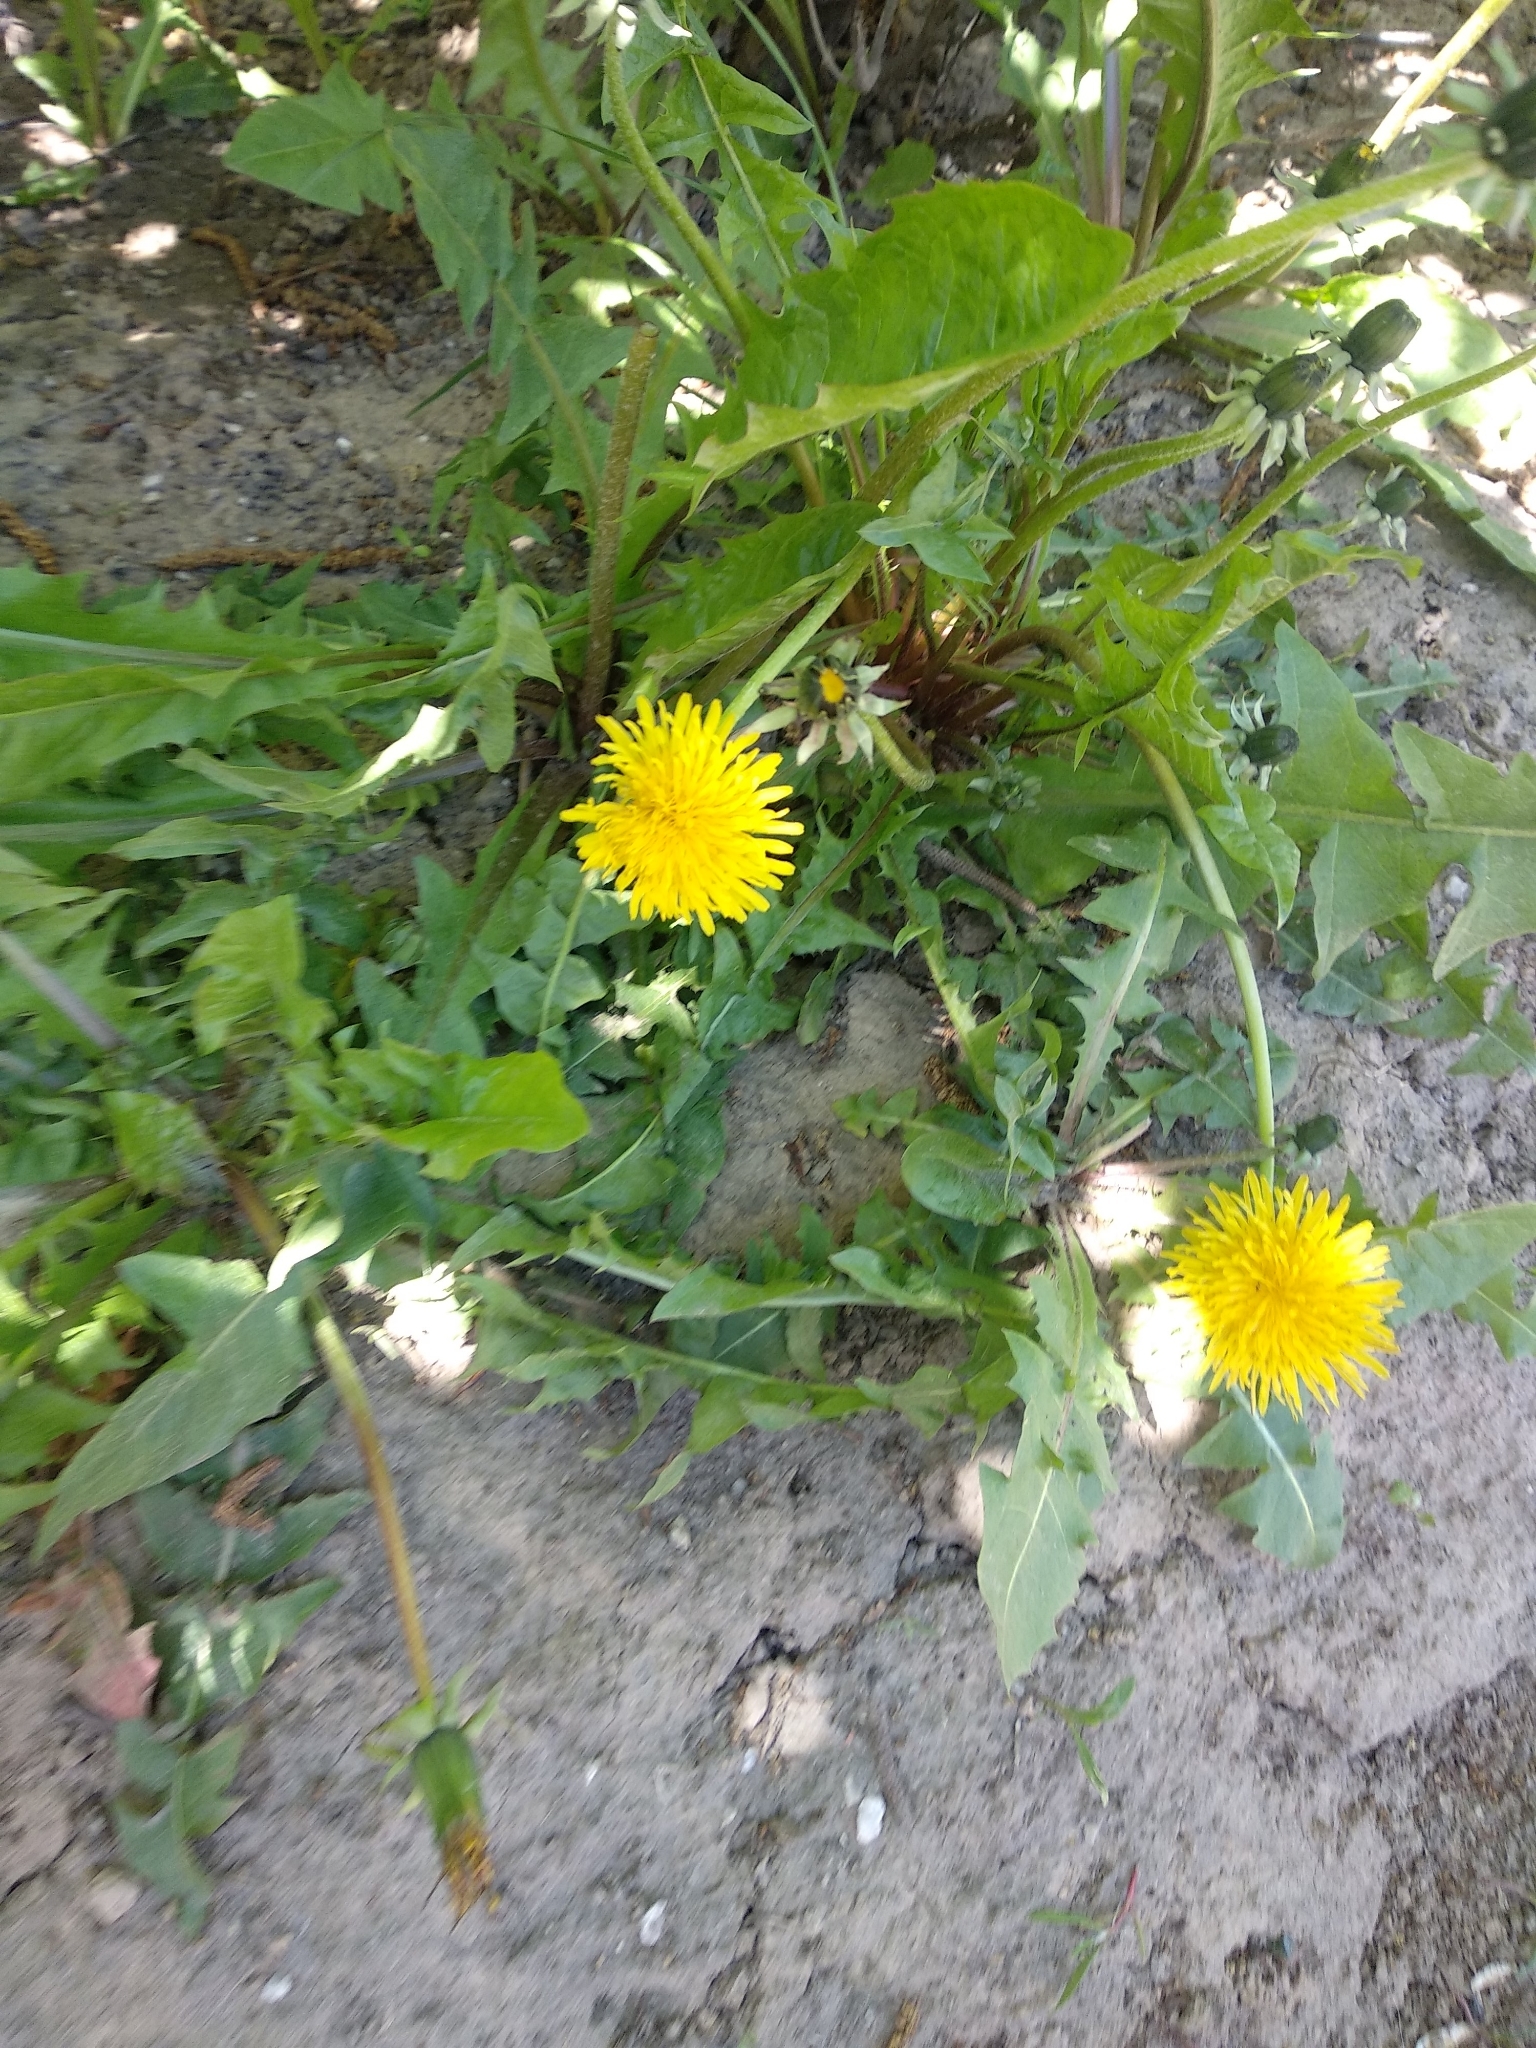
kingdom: Plantae
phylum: Tracheophyta
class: Magnoliopsida
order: Asterales
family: Asteraceae
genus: Taraxacum
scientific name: Taraxacum officinale
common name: Common dandelion
